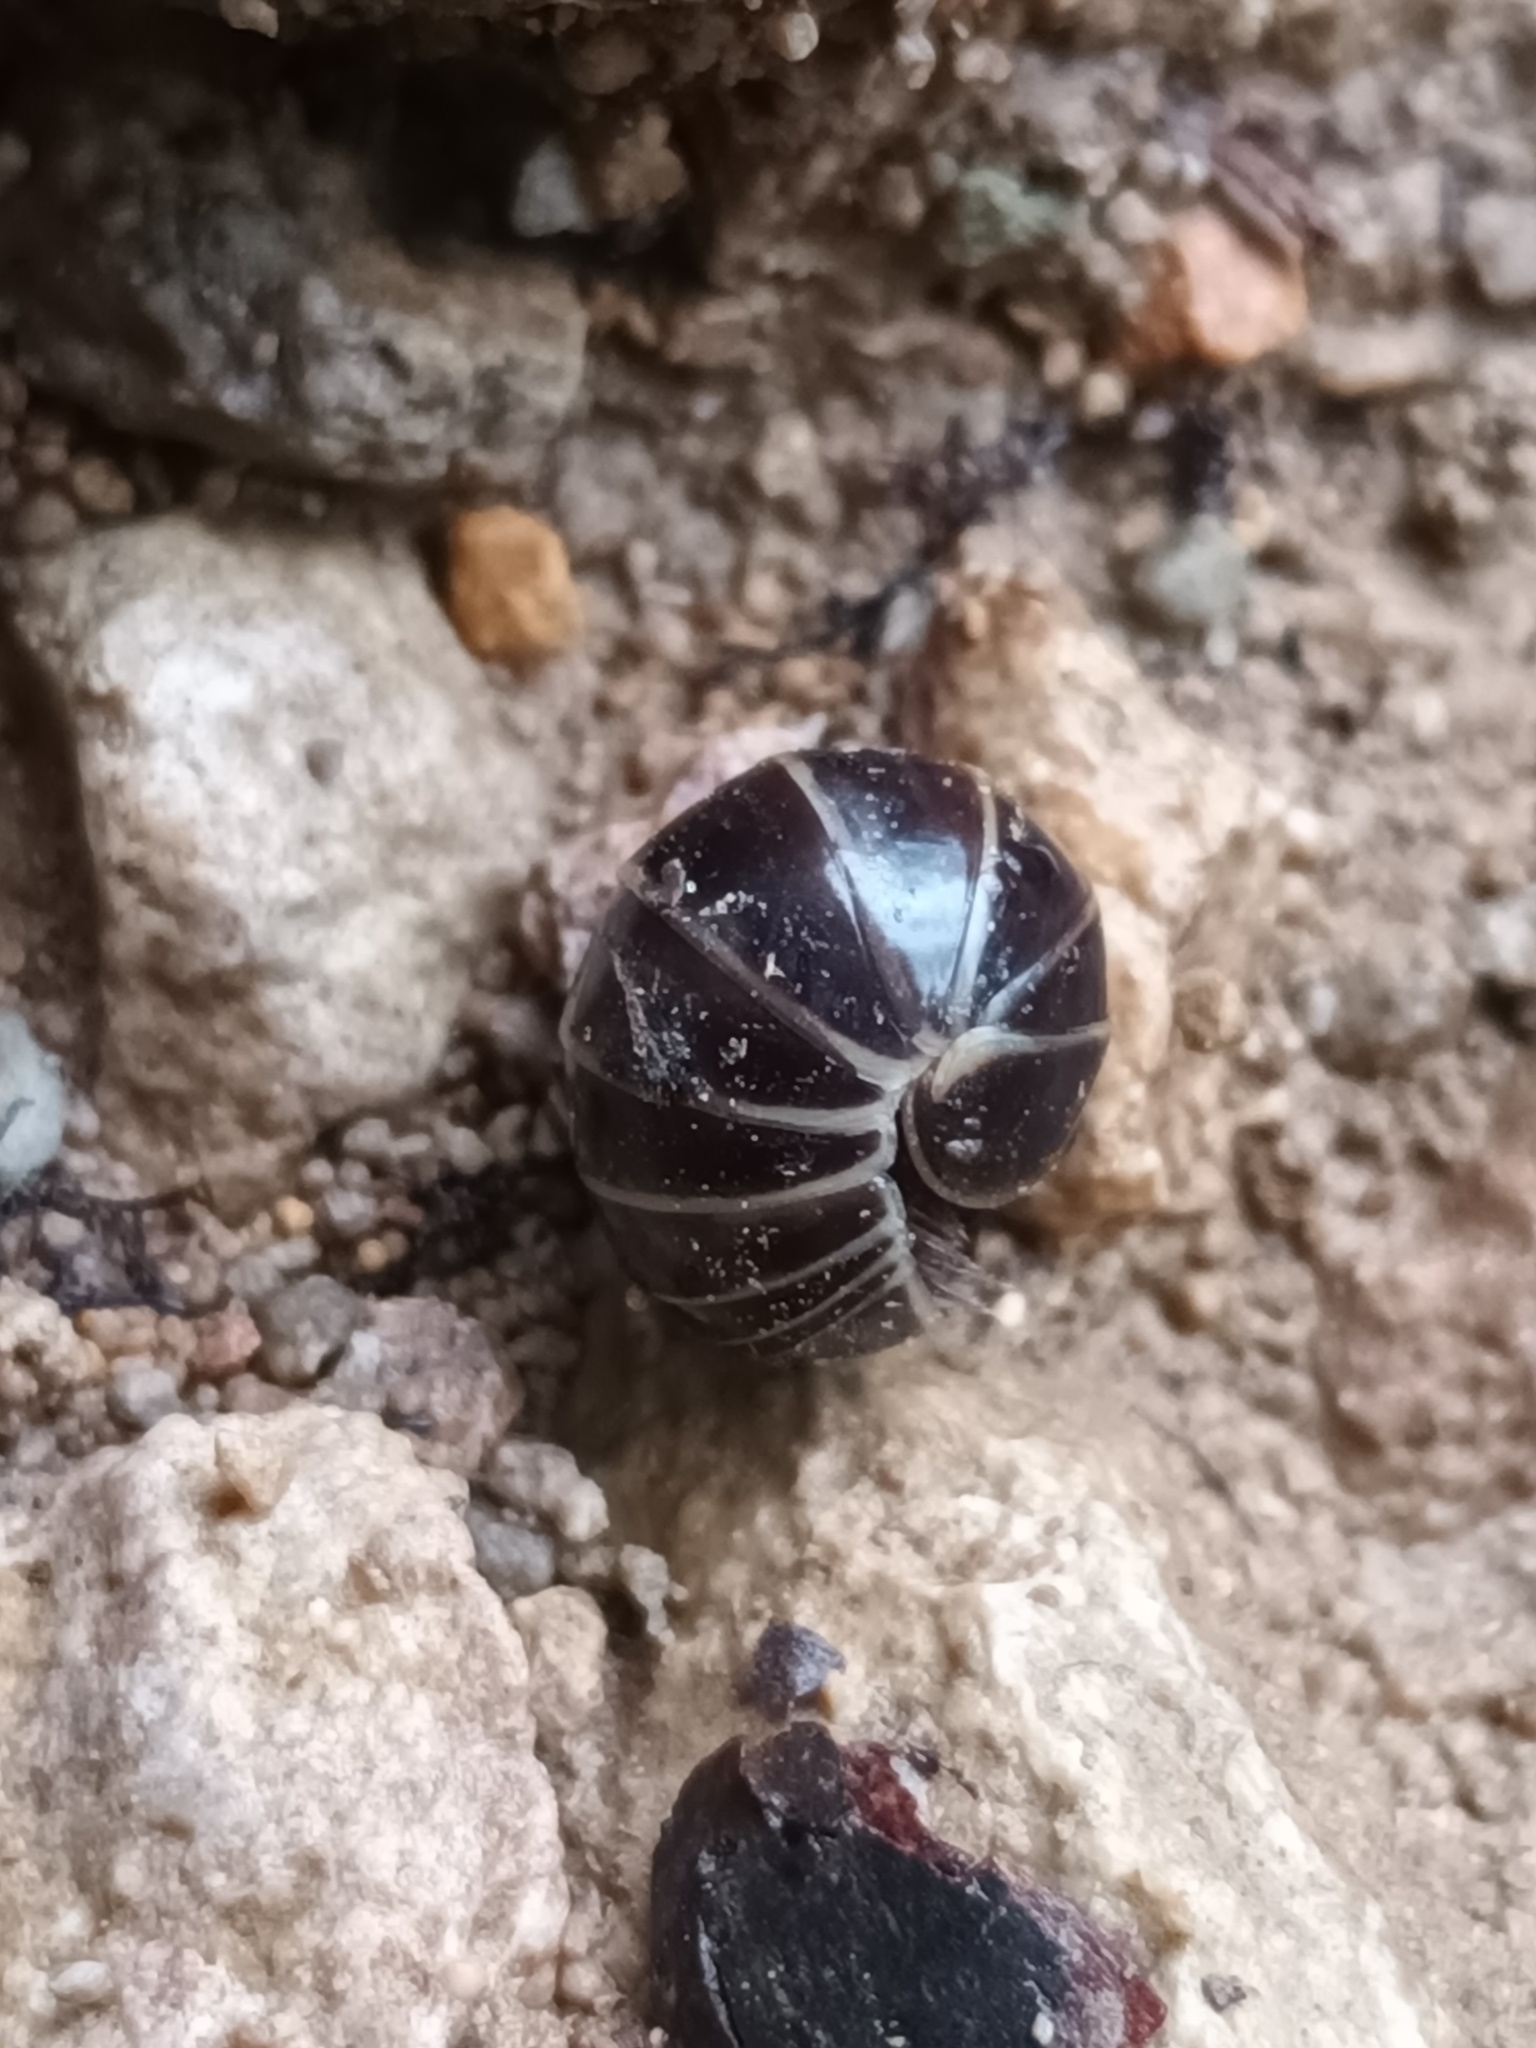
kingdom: Animalia
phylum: Arthropoda
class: Diplopoda
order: Glomerida
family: Glomeridae
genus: Glomeris
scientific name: Glomeris marginata
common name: Bordered pill millipede
